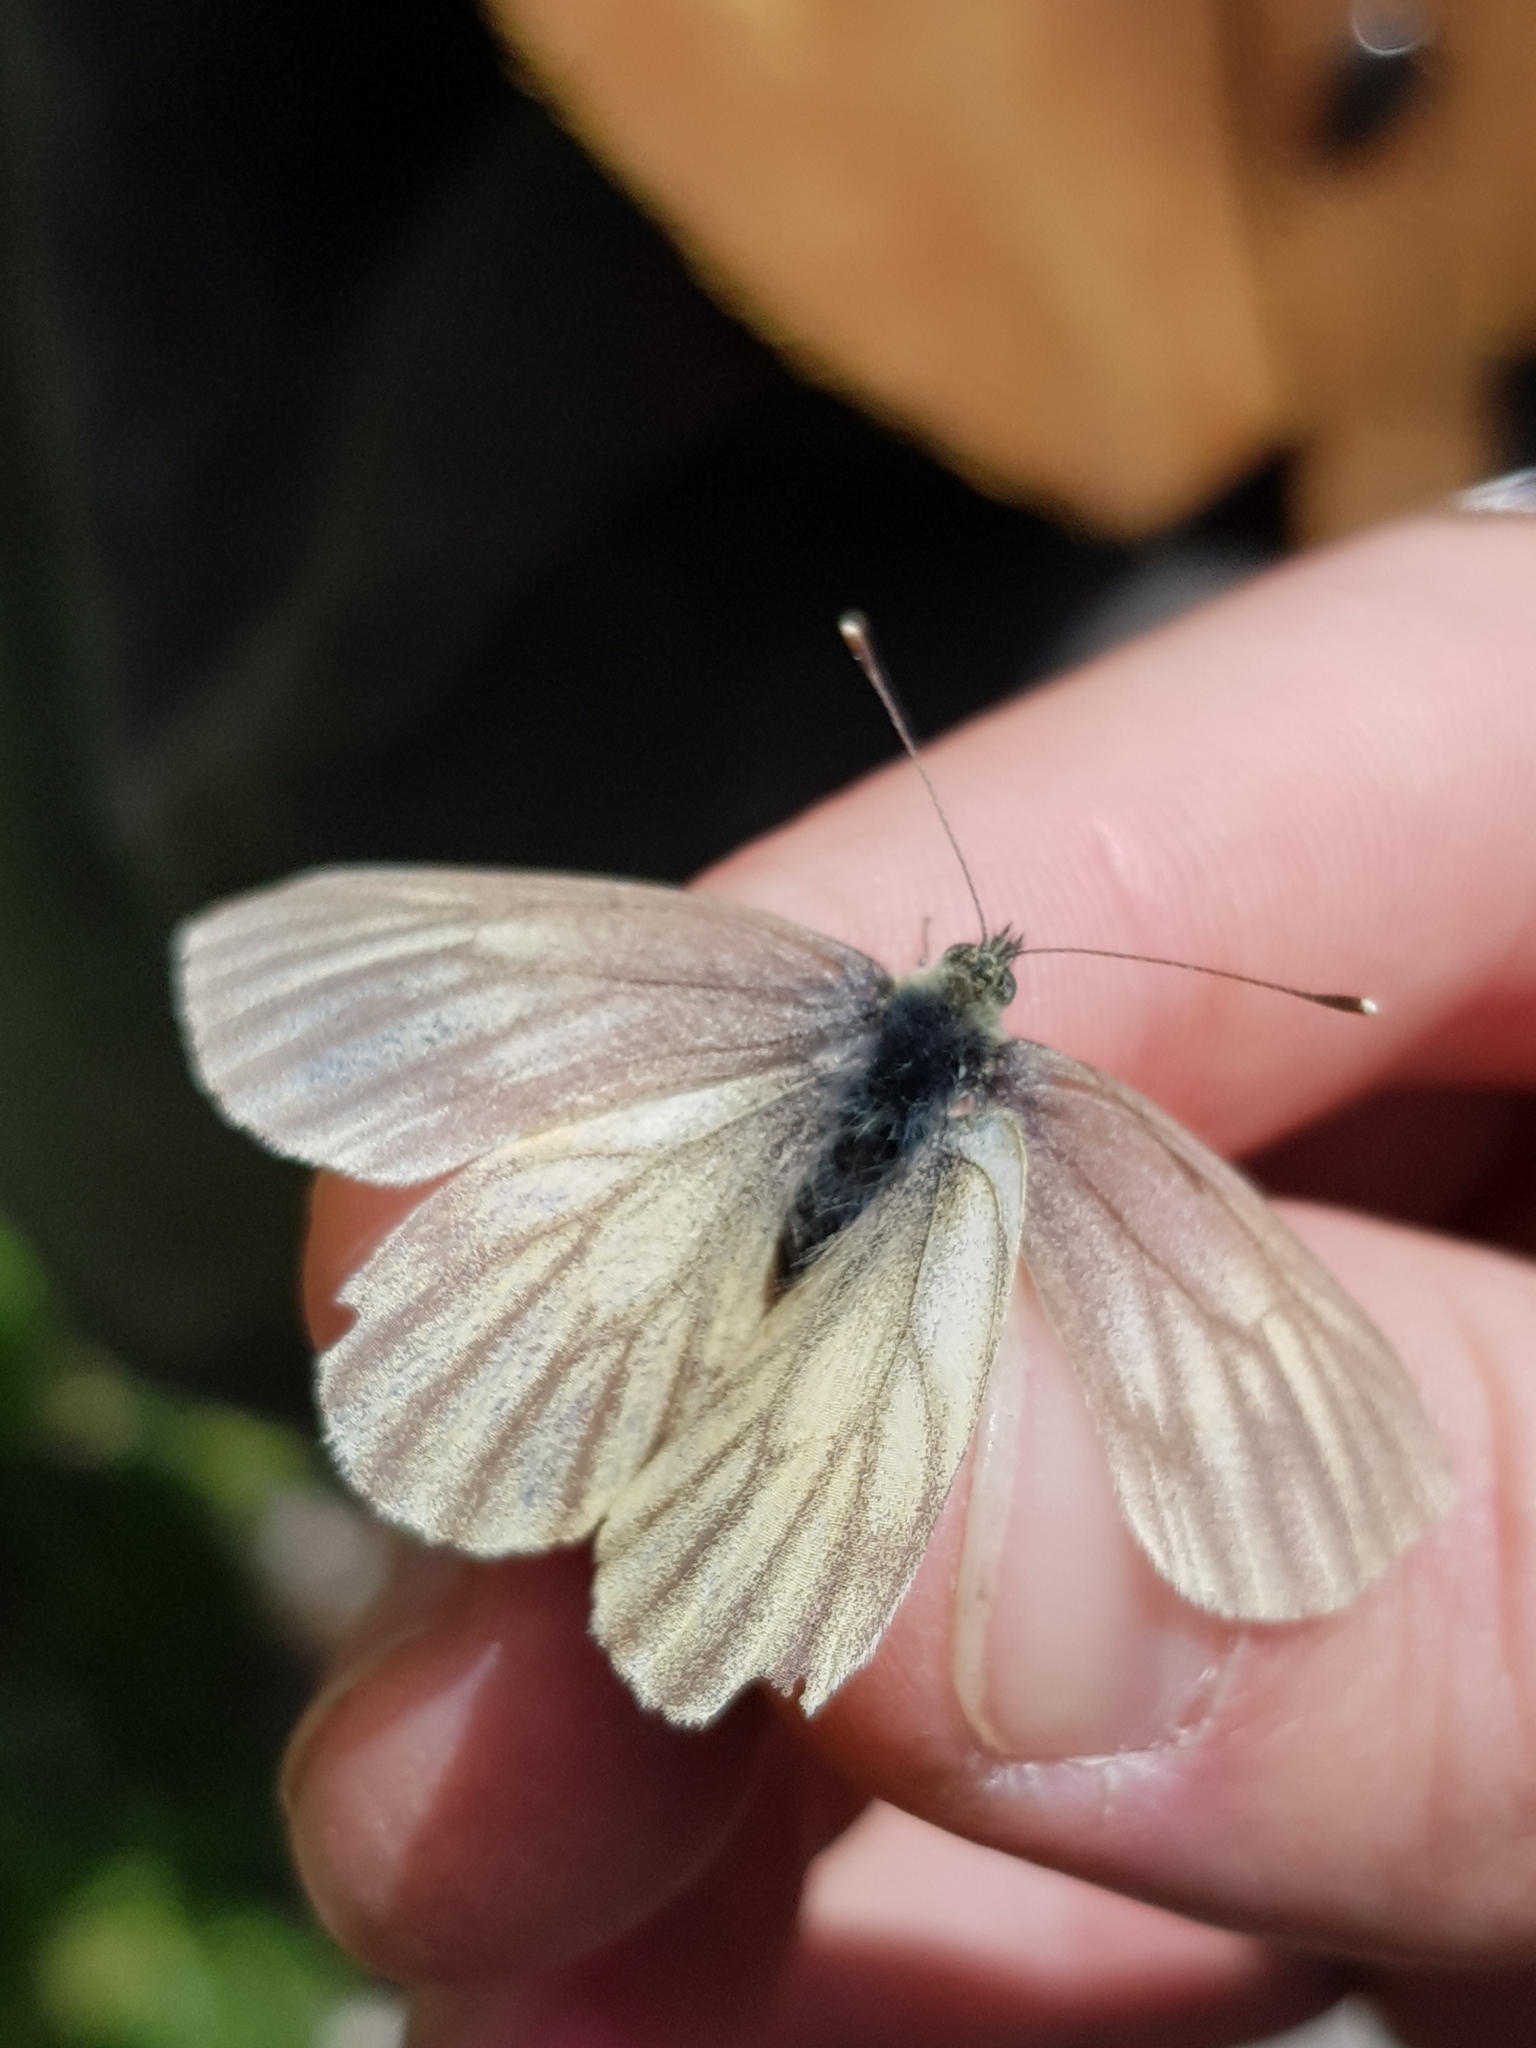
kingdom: Animalia
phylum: Arthropoda
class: Insecta
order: Lepidoptera
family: Pieridae
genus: Pieris
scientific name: Pieris bryoniae
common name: Mountain green-veined white
